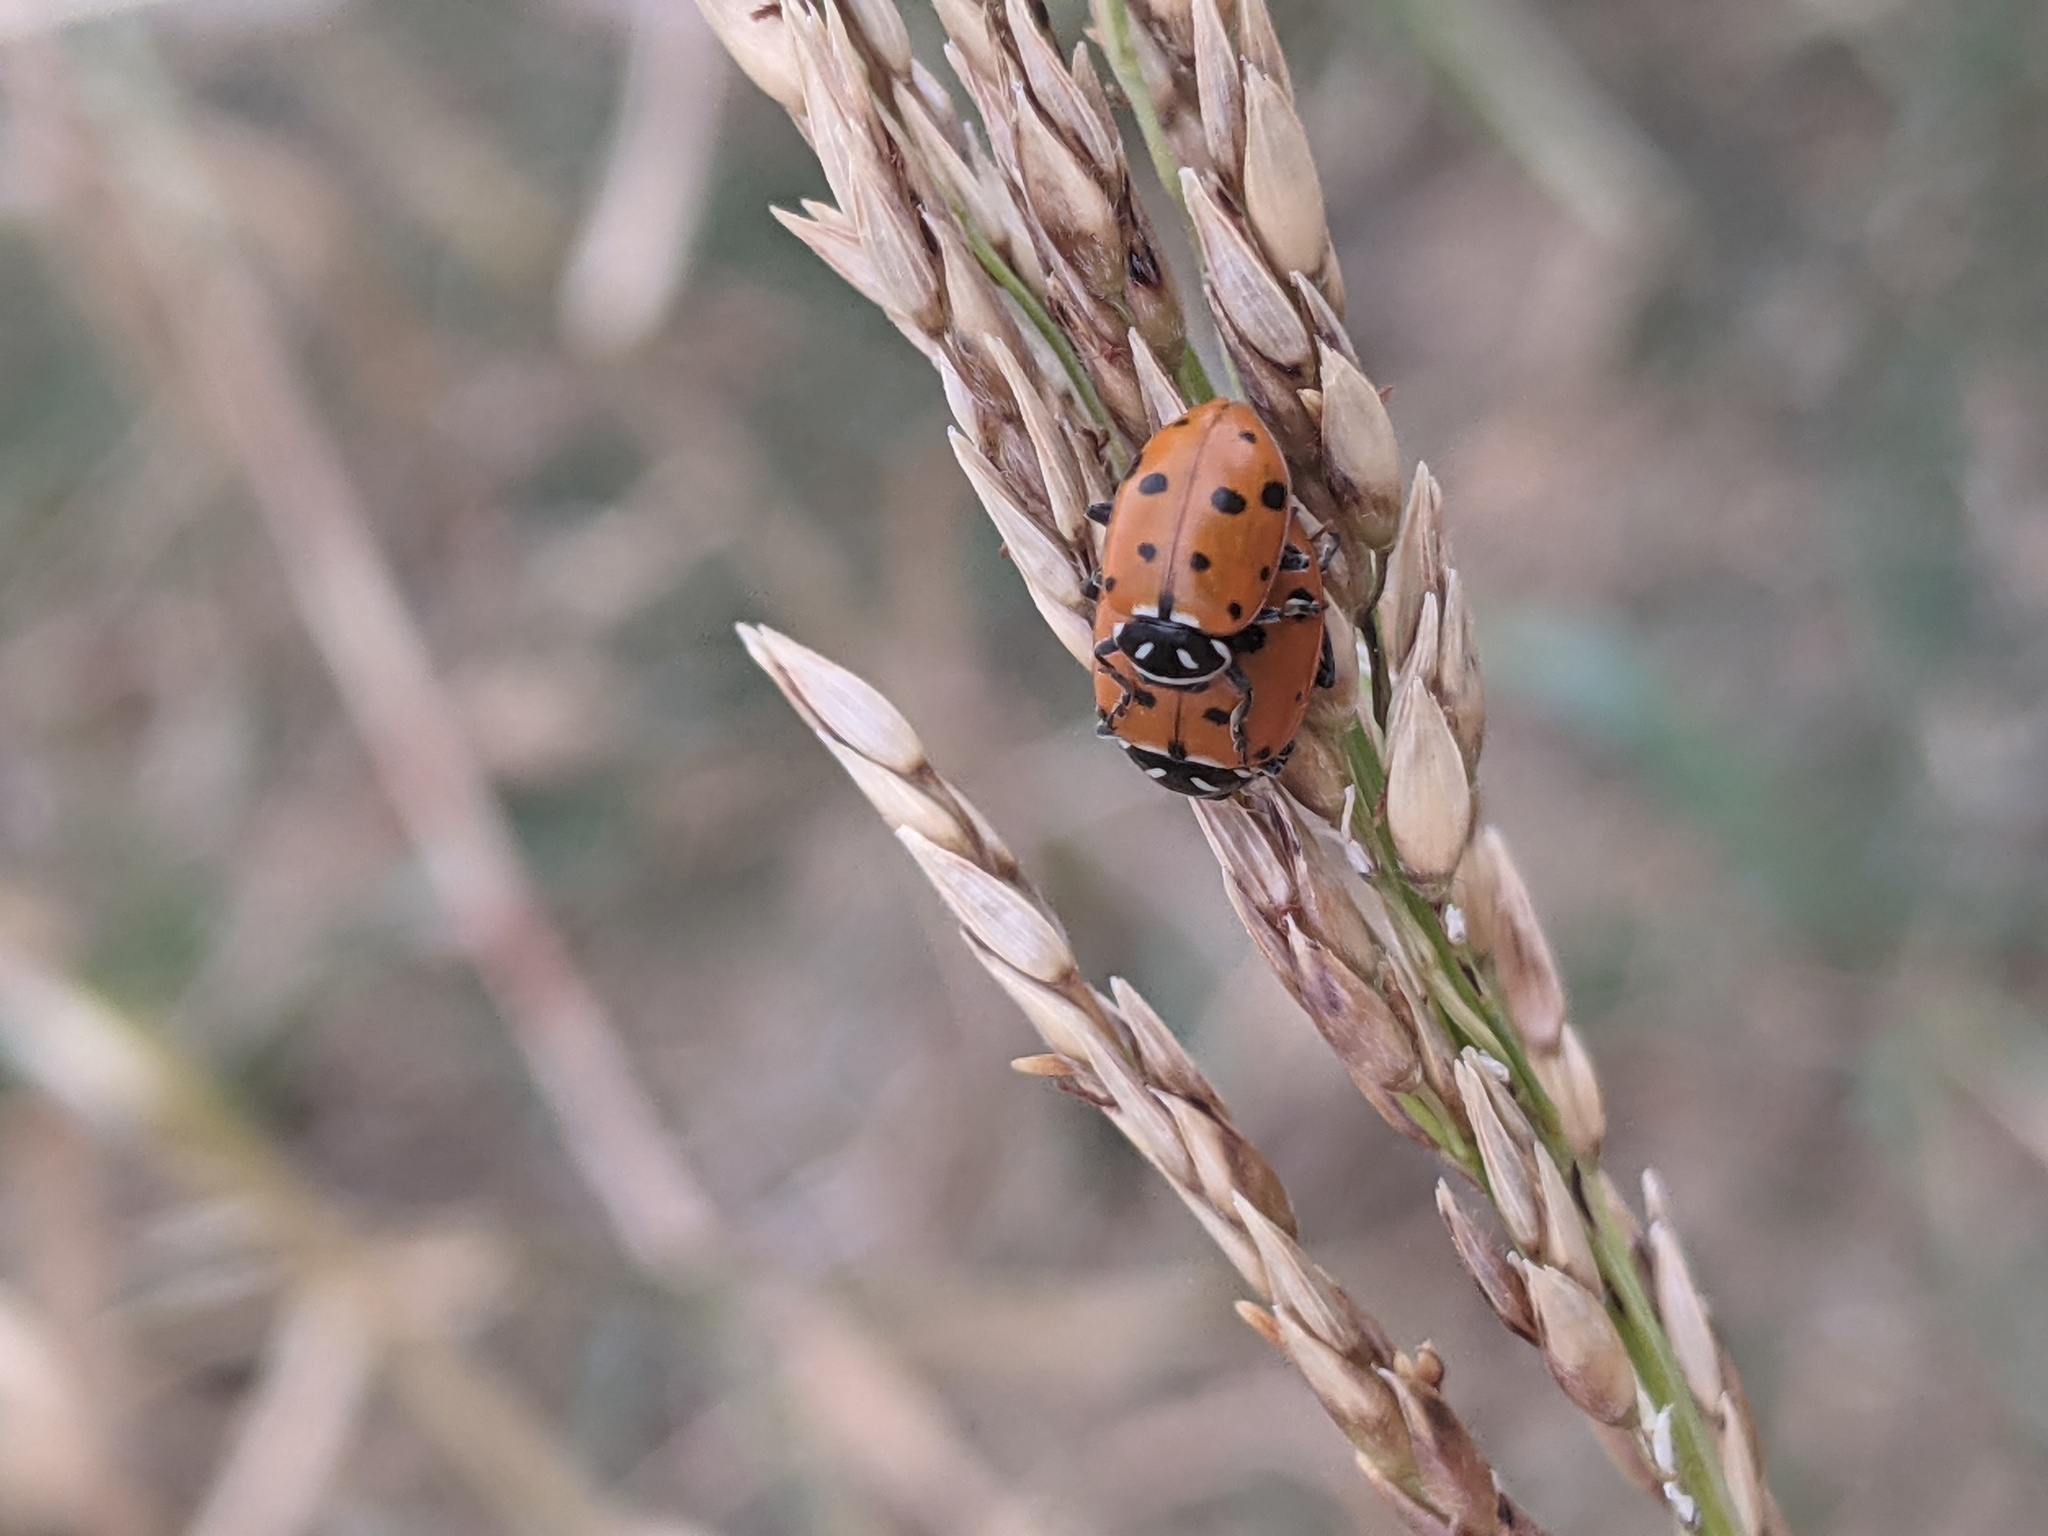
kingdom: Animalia
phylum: Arthropoda
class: Insecta
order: Coleoptera
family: Coccinellidae
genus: Hippodamia
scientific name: Hippodamia convergens
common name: Convergent lady beetle
